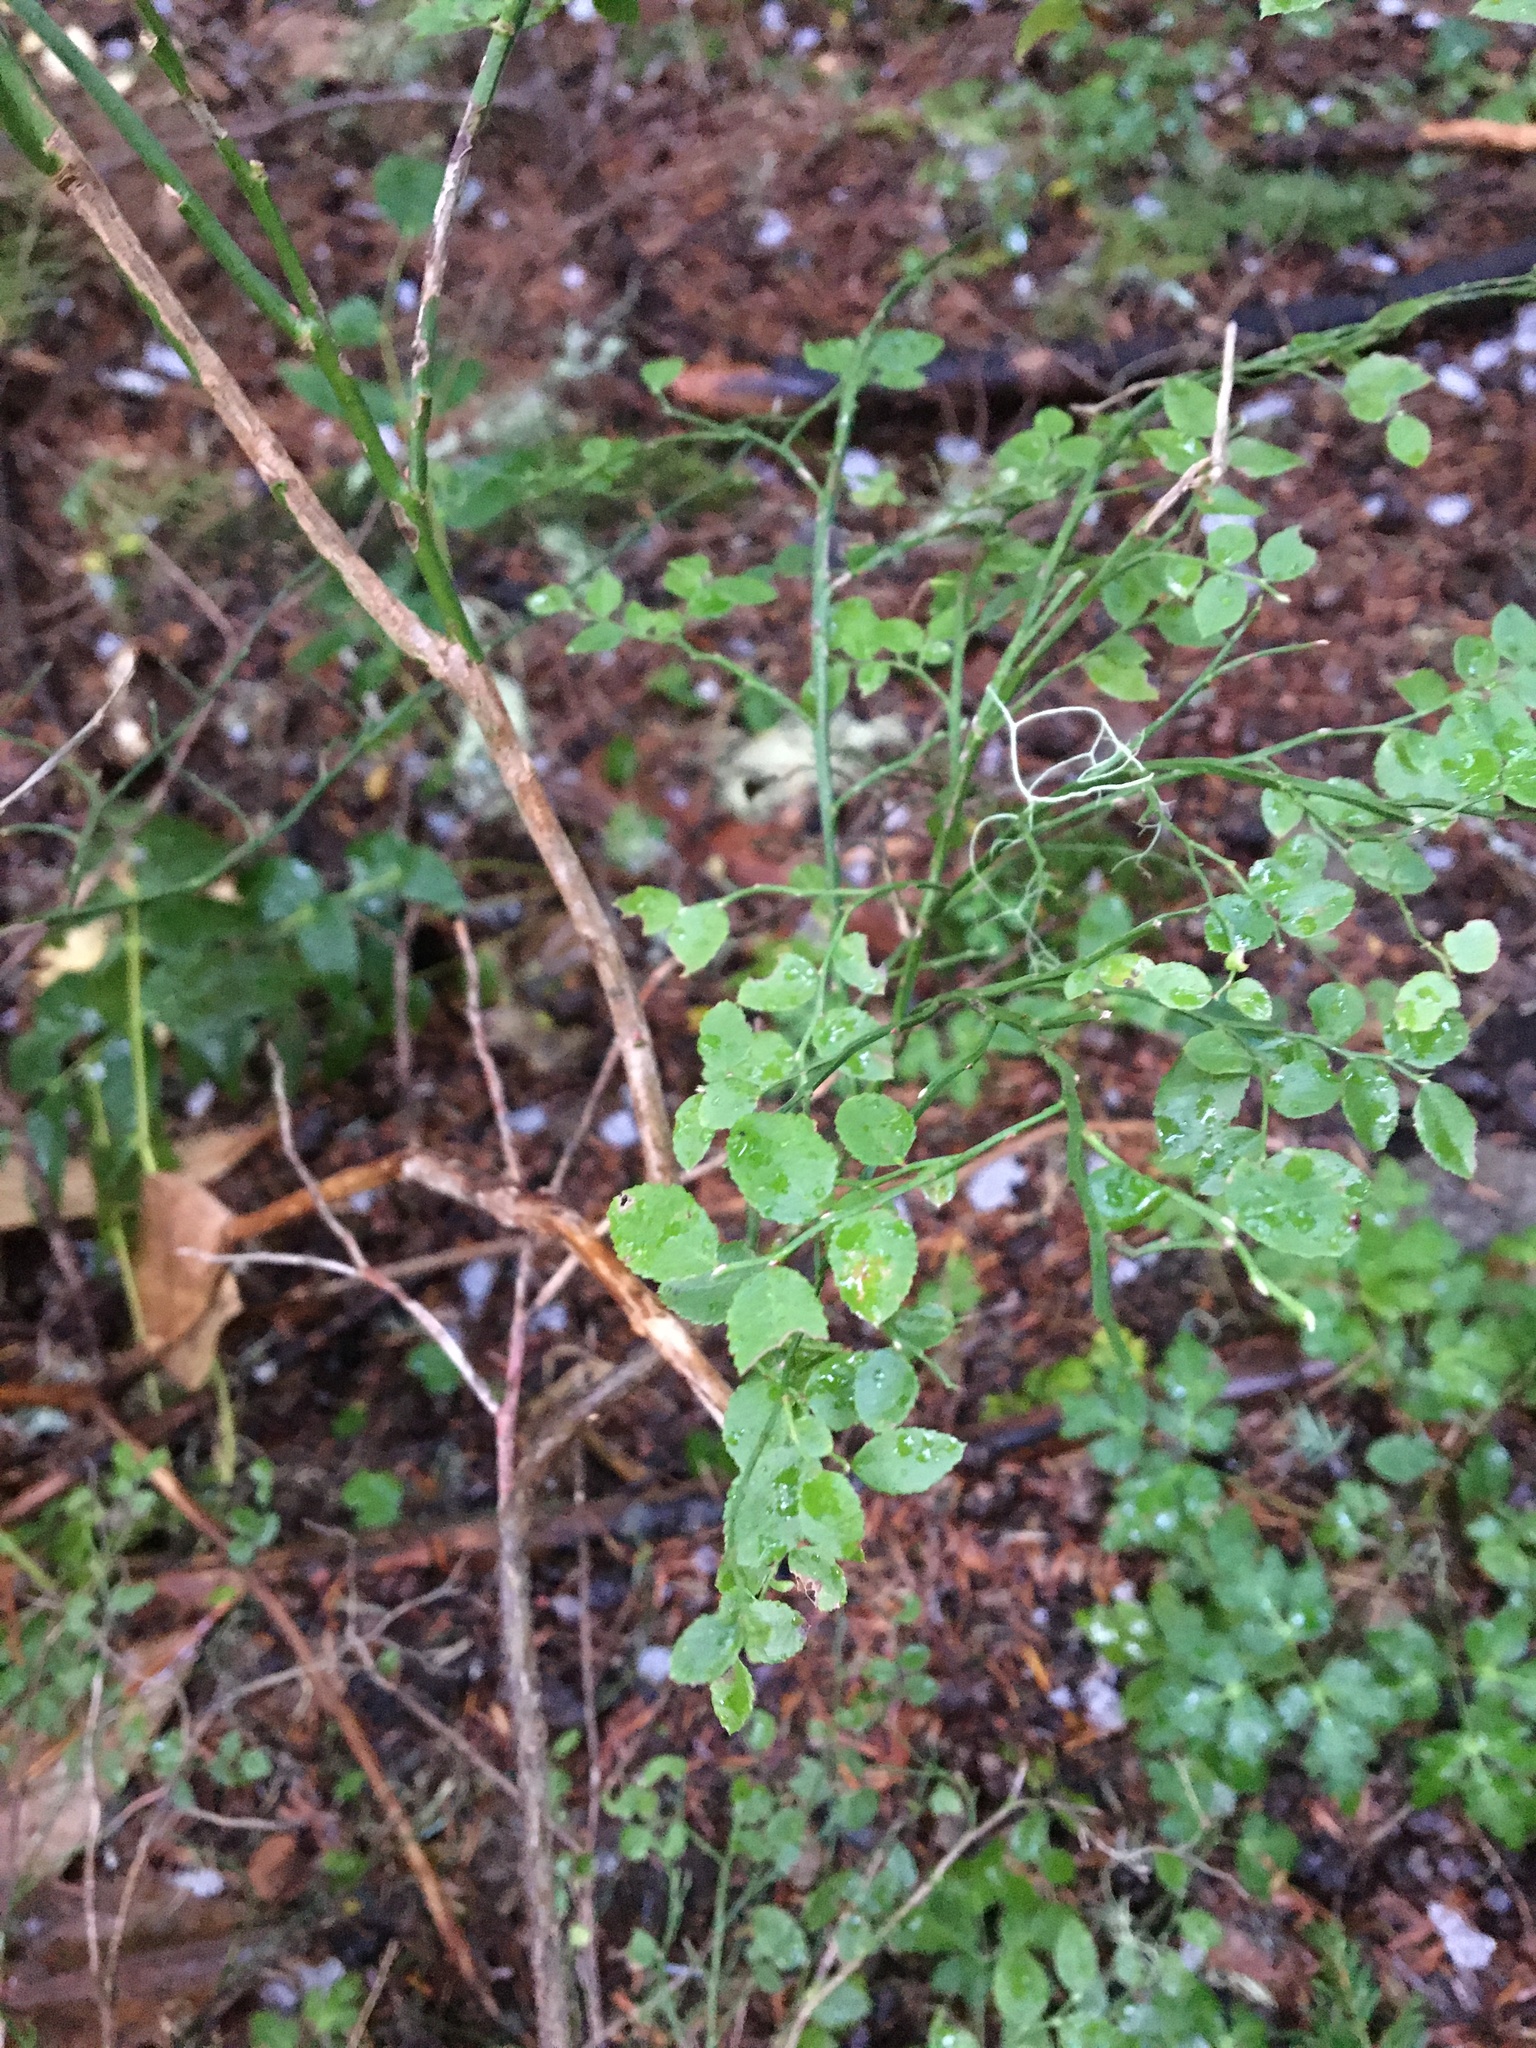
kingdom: Plantae
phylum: Tracheophyta
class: Magnoliopsida
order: Ericales
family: Ericaceae
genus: Vaccinium
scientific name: Vaccinium parvifolium
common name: Red-huckleberry
